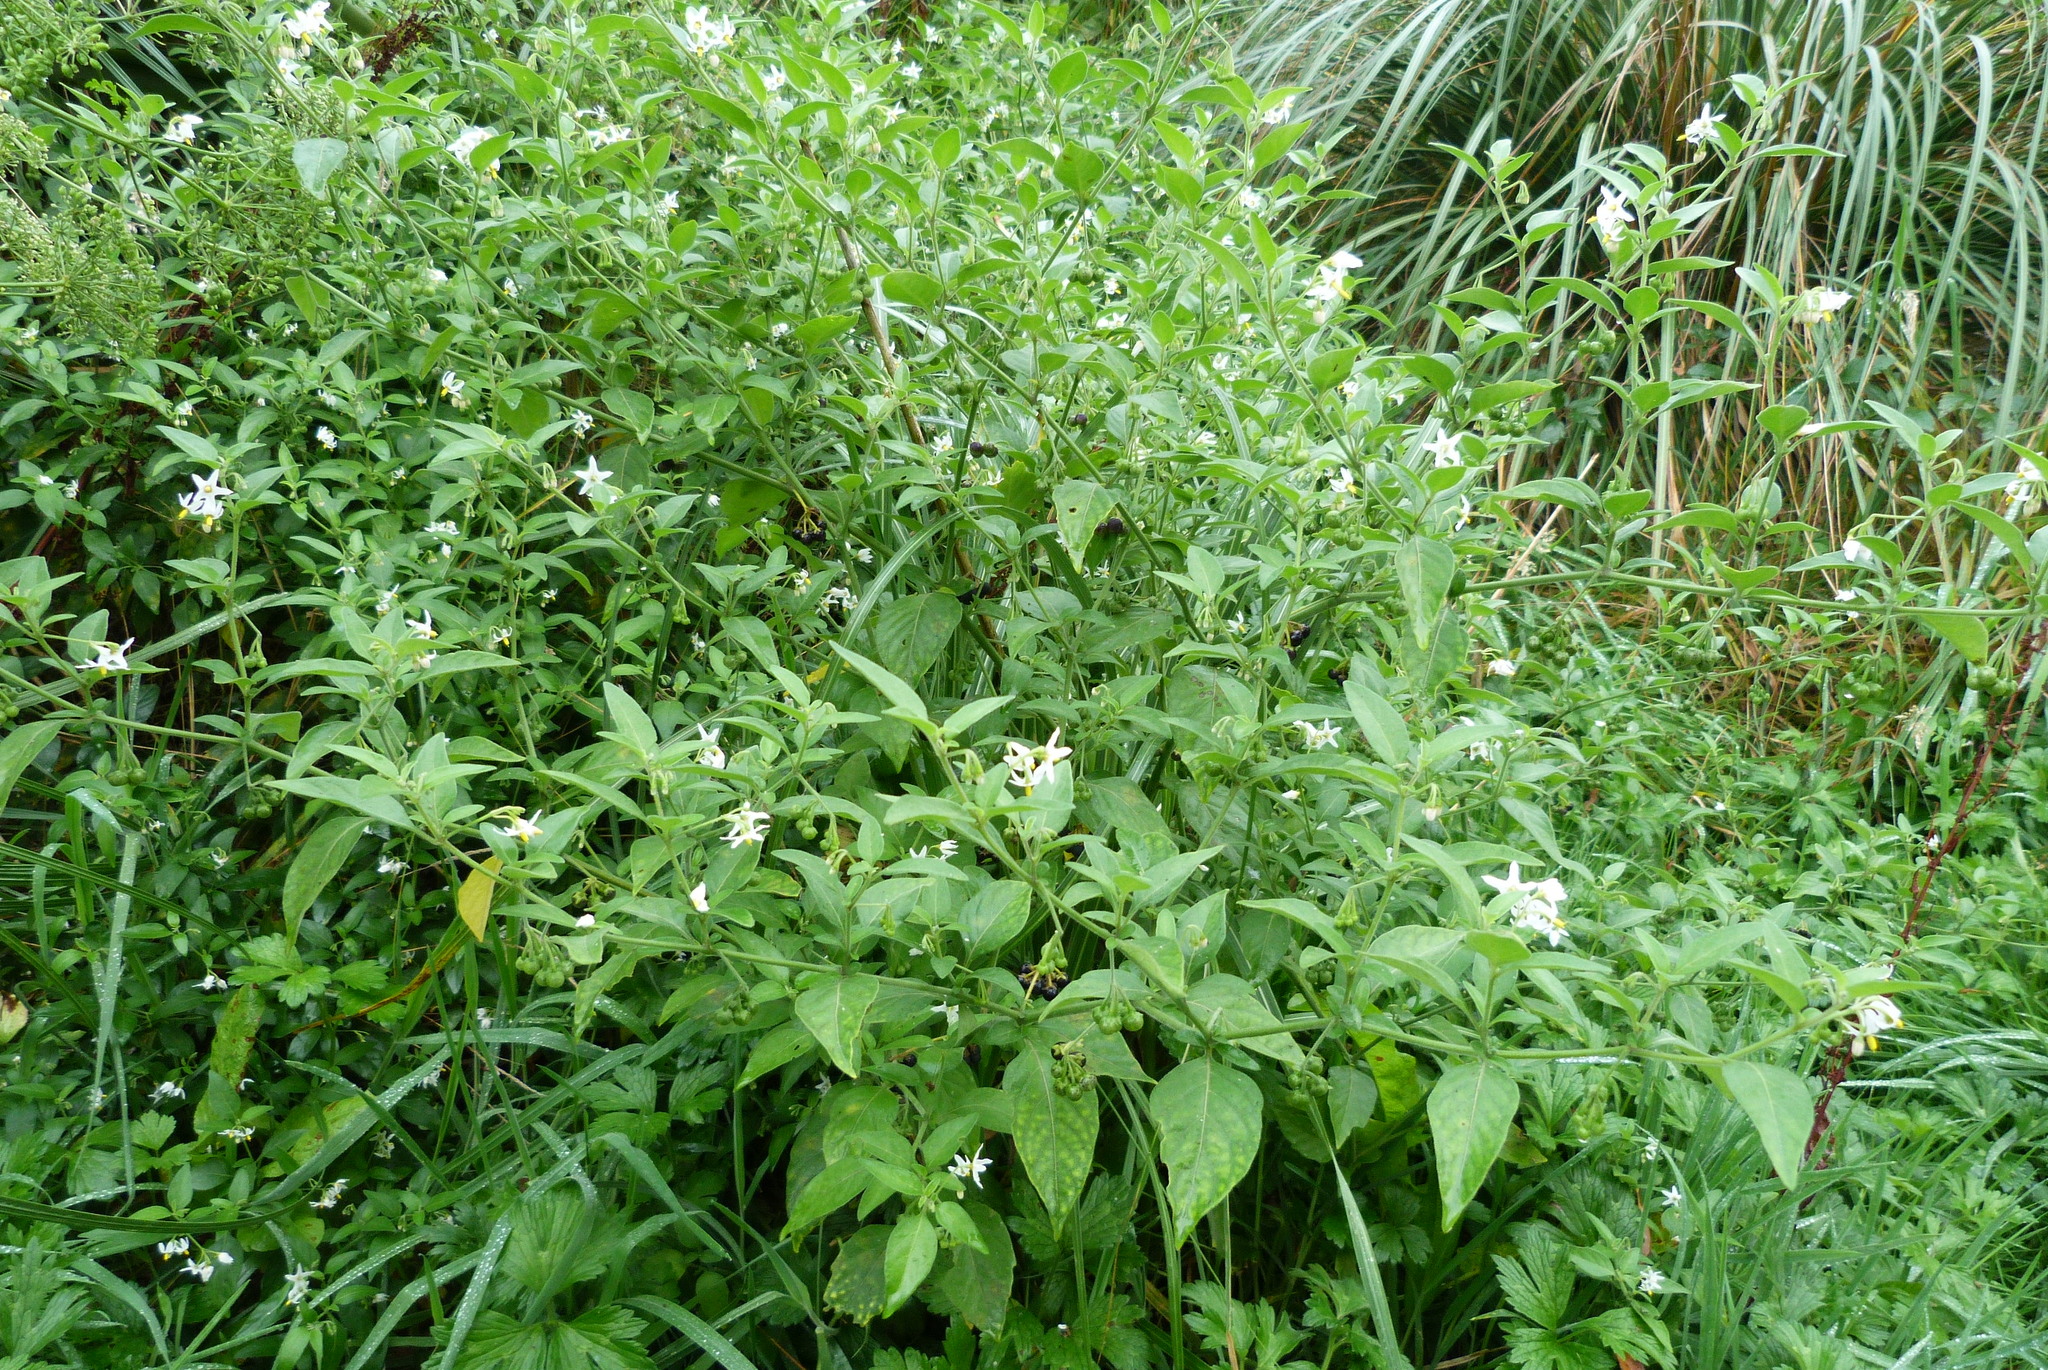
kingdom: Plantae
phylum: Tracheophyta
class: Magnoliopsida
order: Solanales
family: Solanaceae
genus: Solanum
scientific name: Solanum chenopodioides
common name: Tall nightshade
